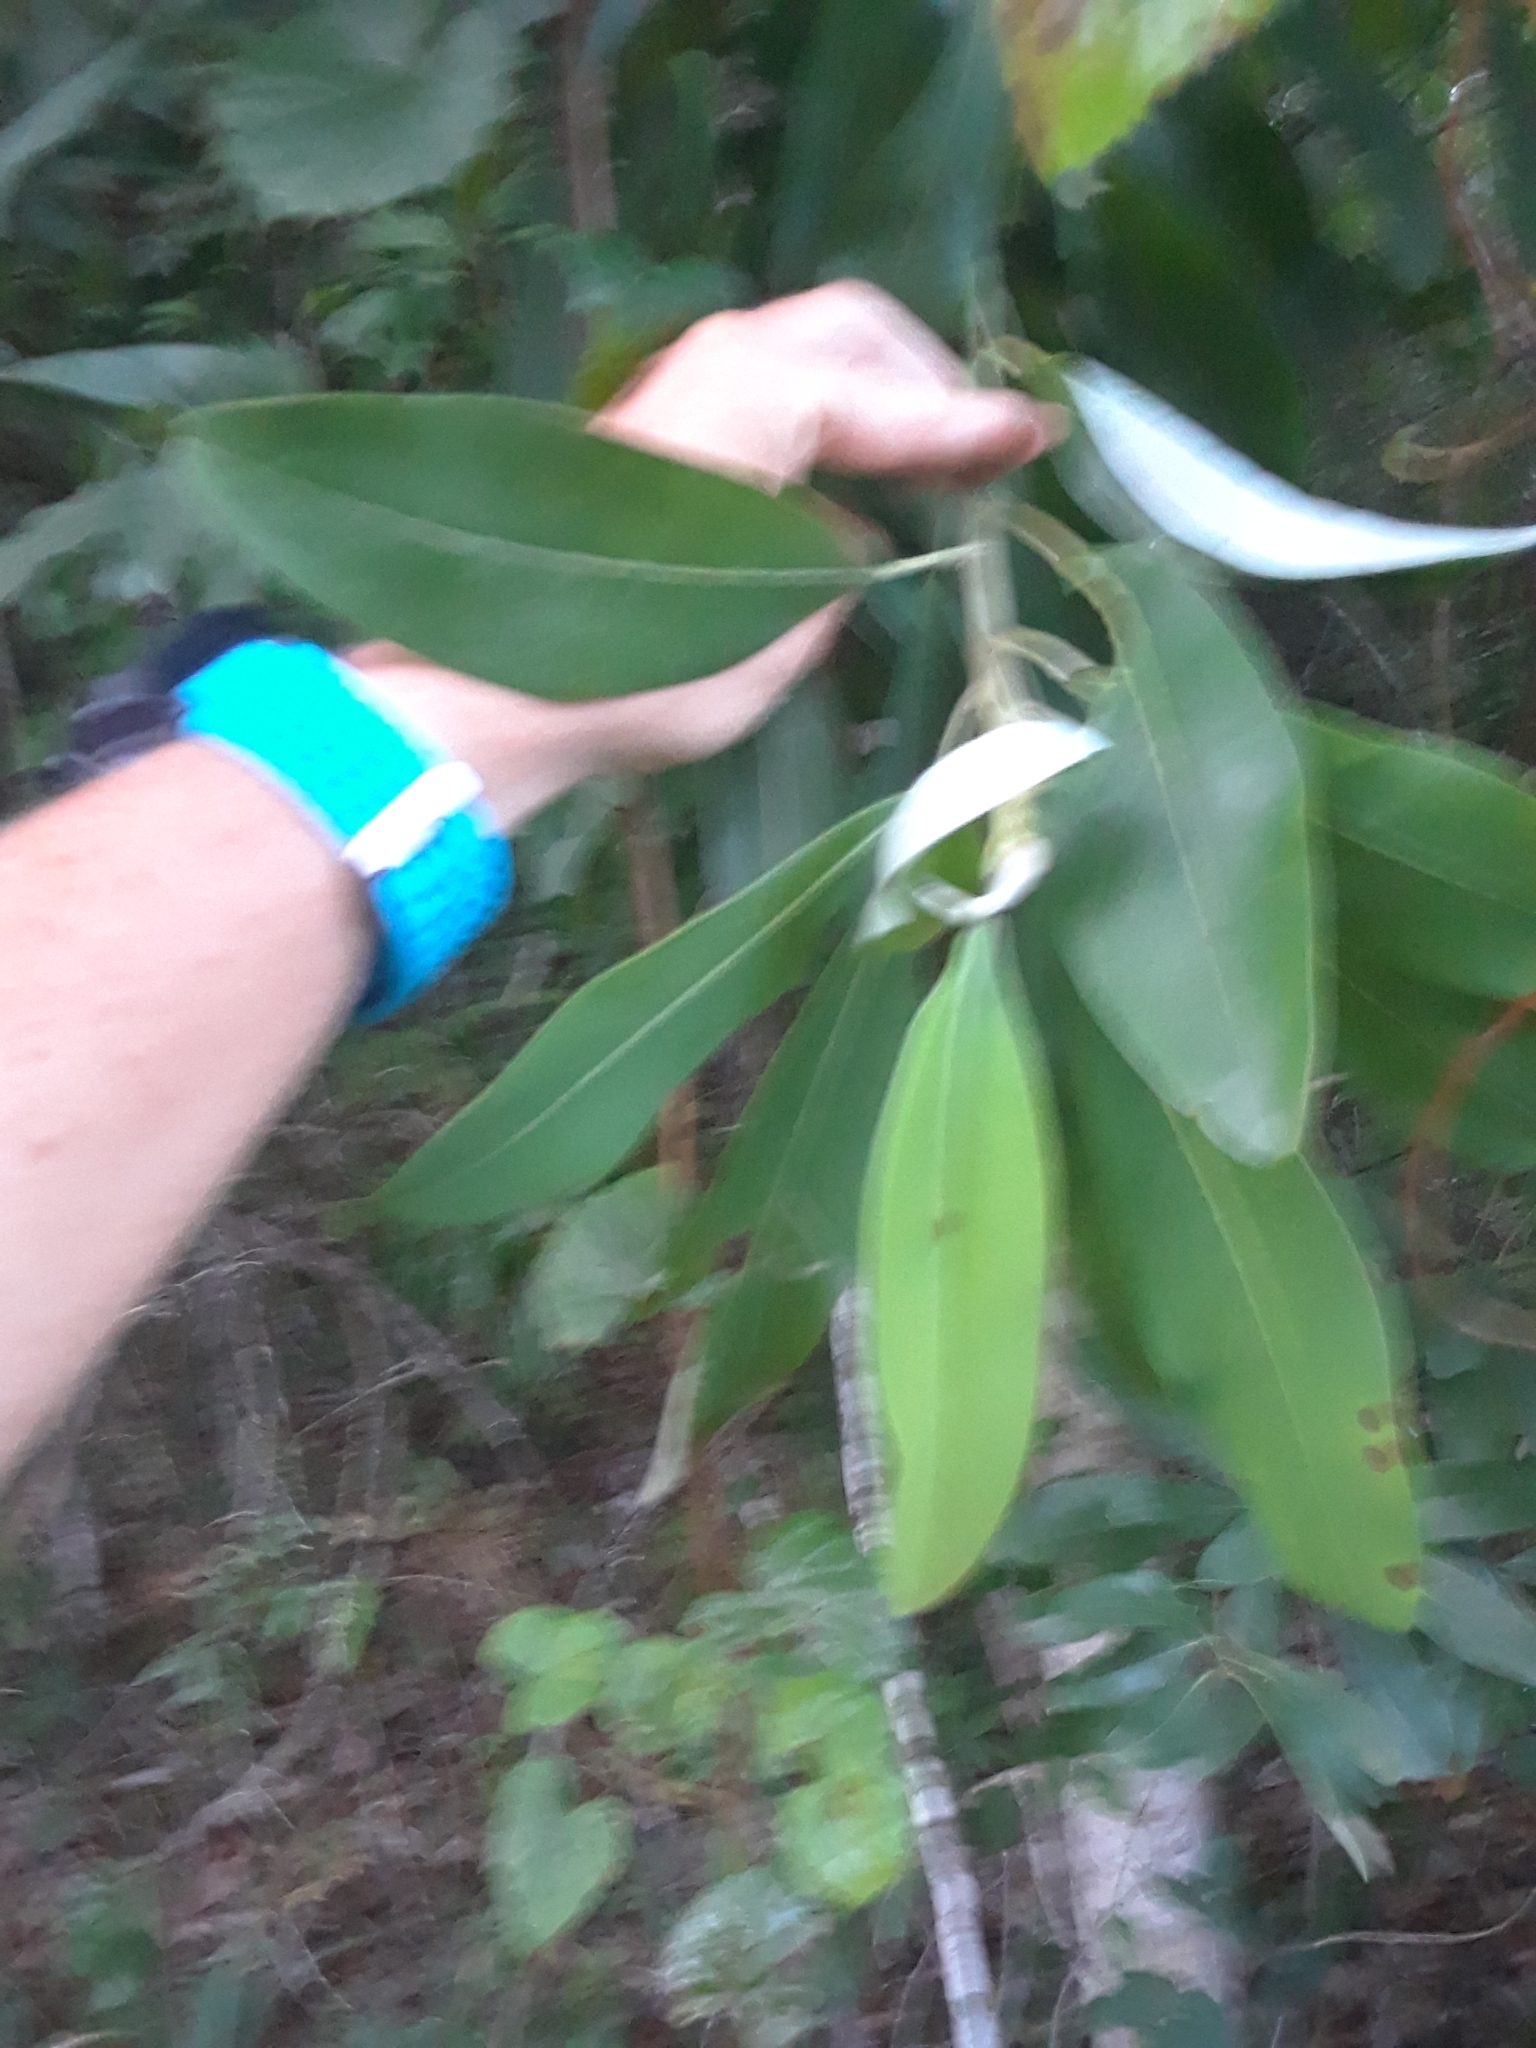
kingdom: Plantae
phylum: Tracheophyta
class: Magnoliopsida
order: Magnoliales
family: Magnoliaceae
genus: Magnolia
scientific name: Magnolia virginiana
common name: Swamp bay
